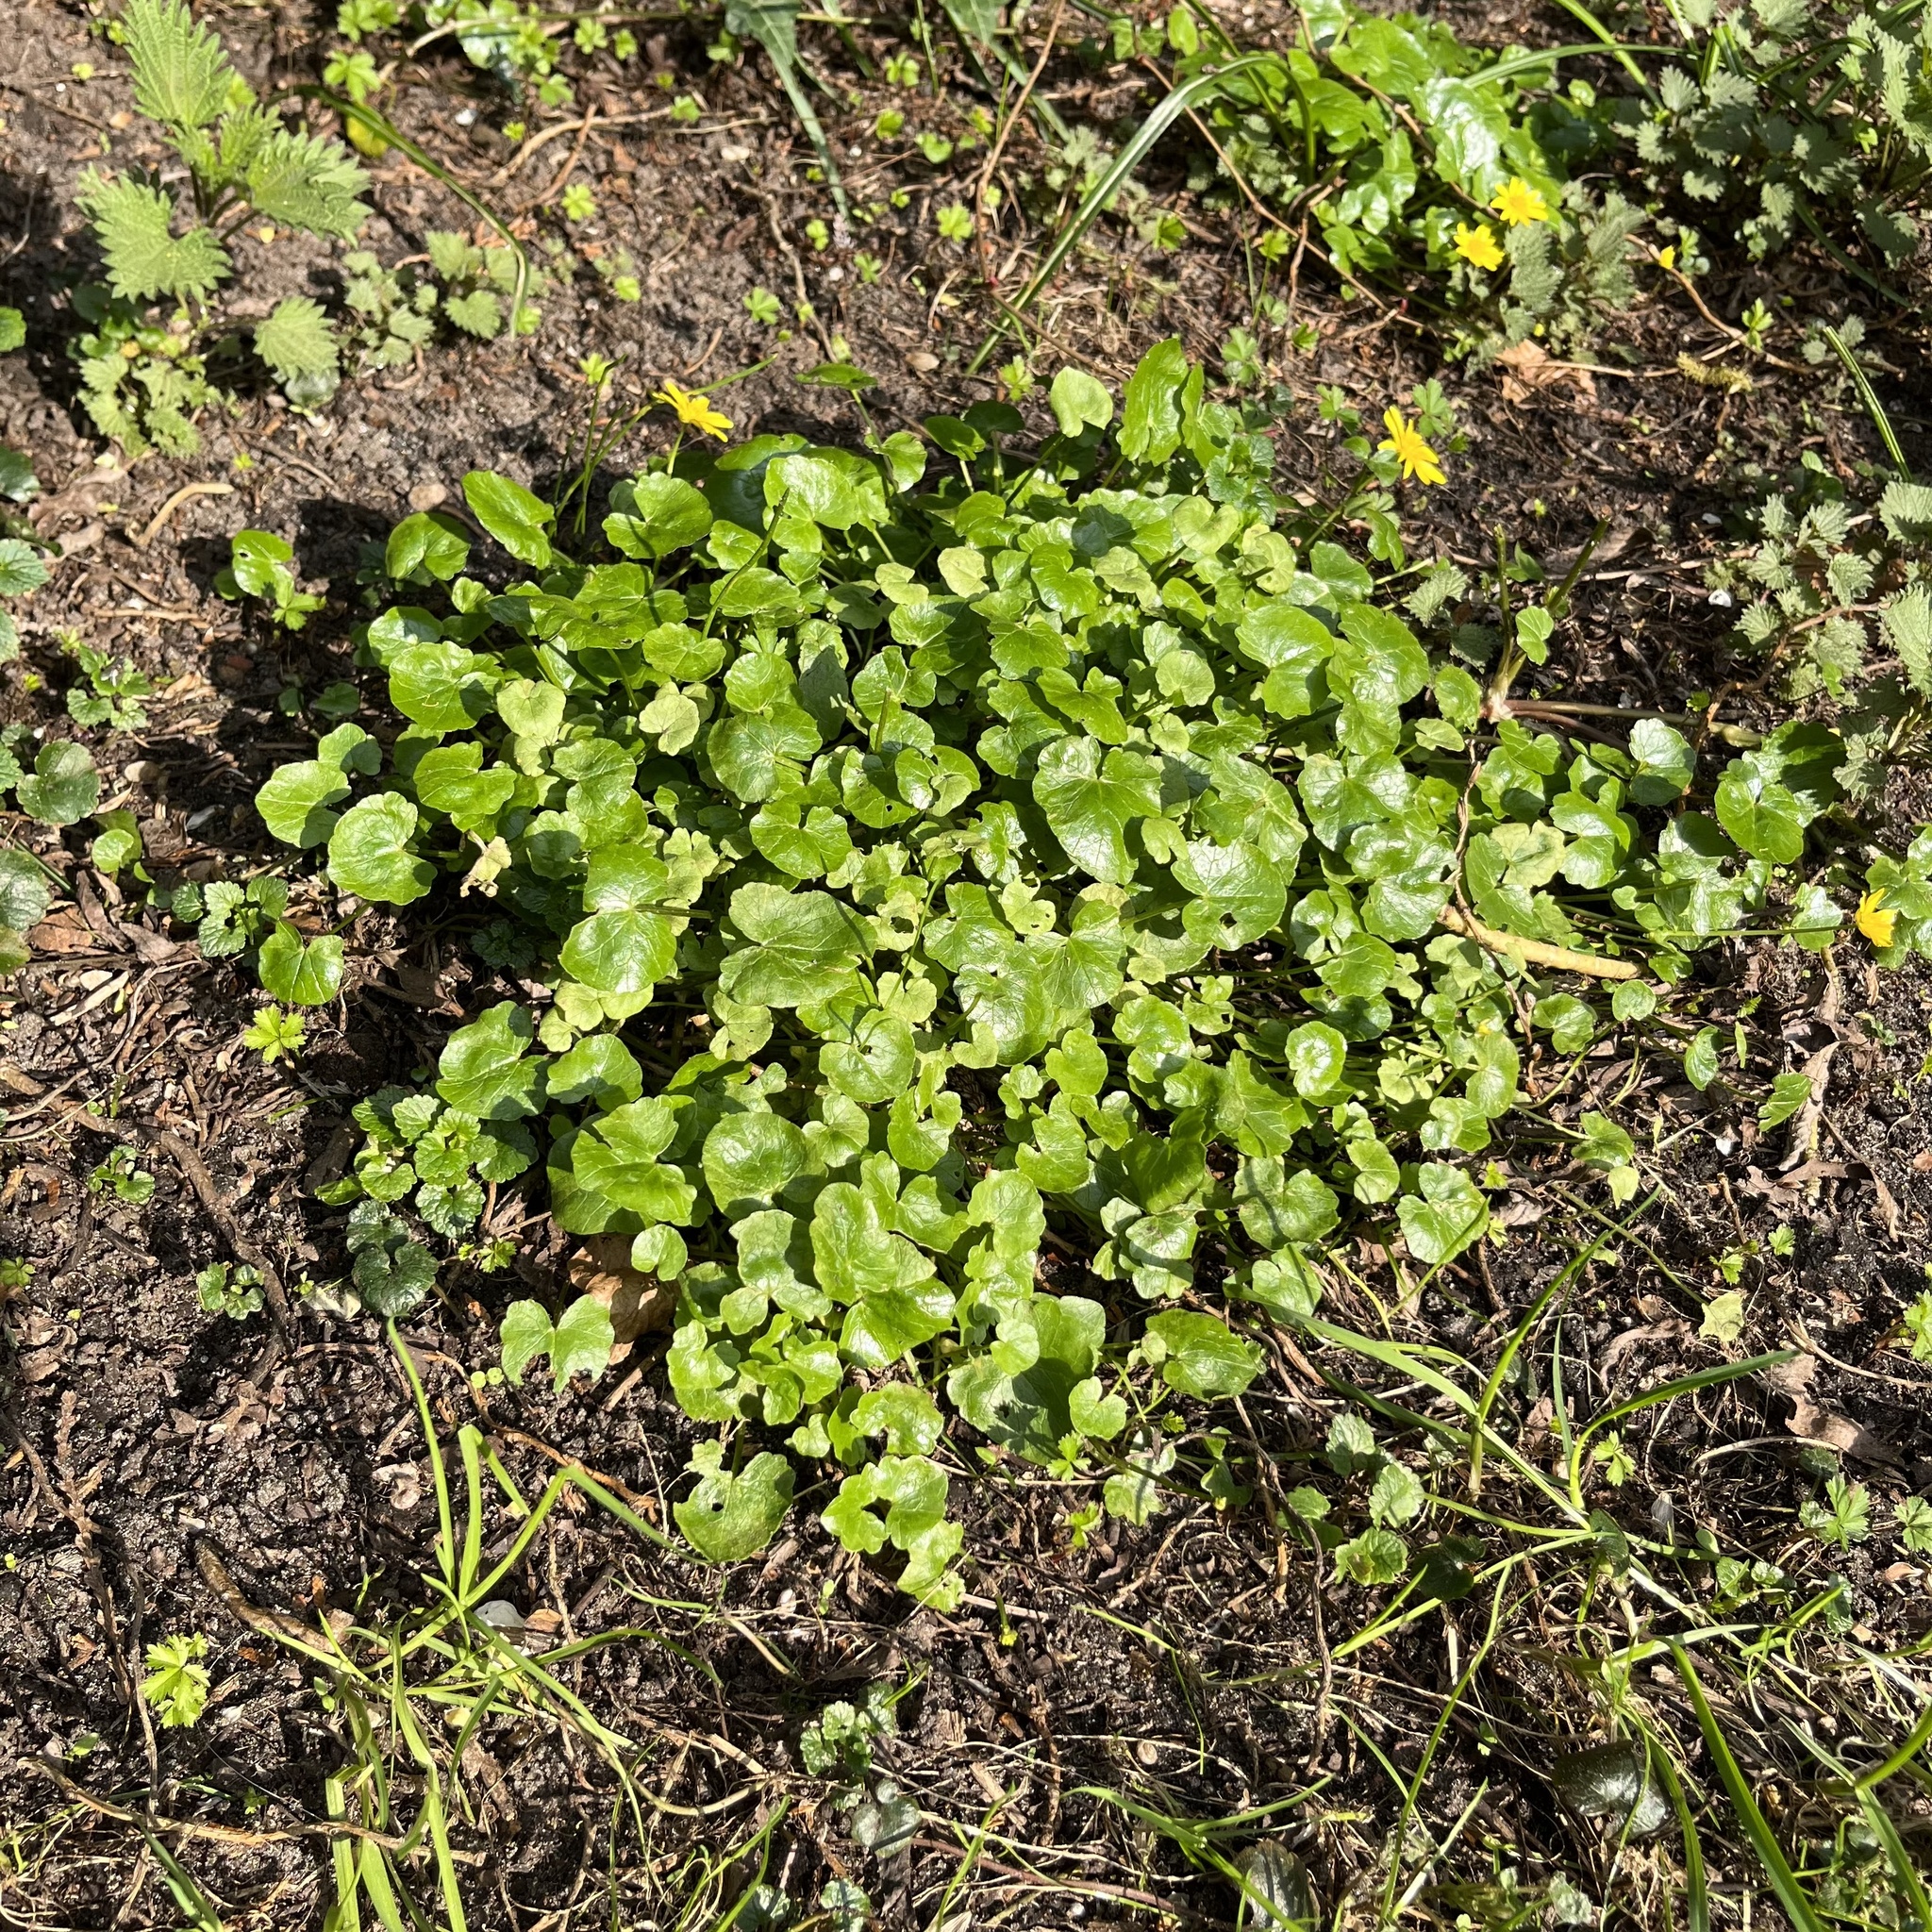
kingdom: Plantae
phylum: Tracheophyta
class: Magnoliopsida
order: Ranunculales
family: Ranunculaceae
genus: Ficaria
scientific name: Ficaria verna
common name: Lesser celandine
